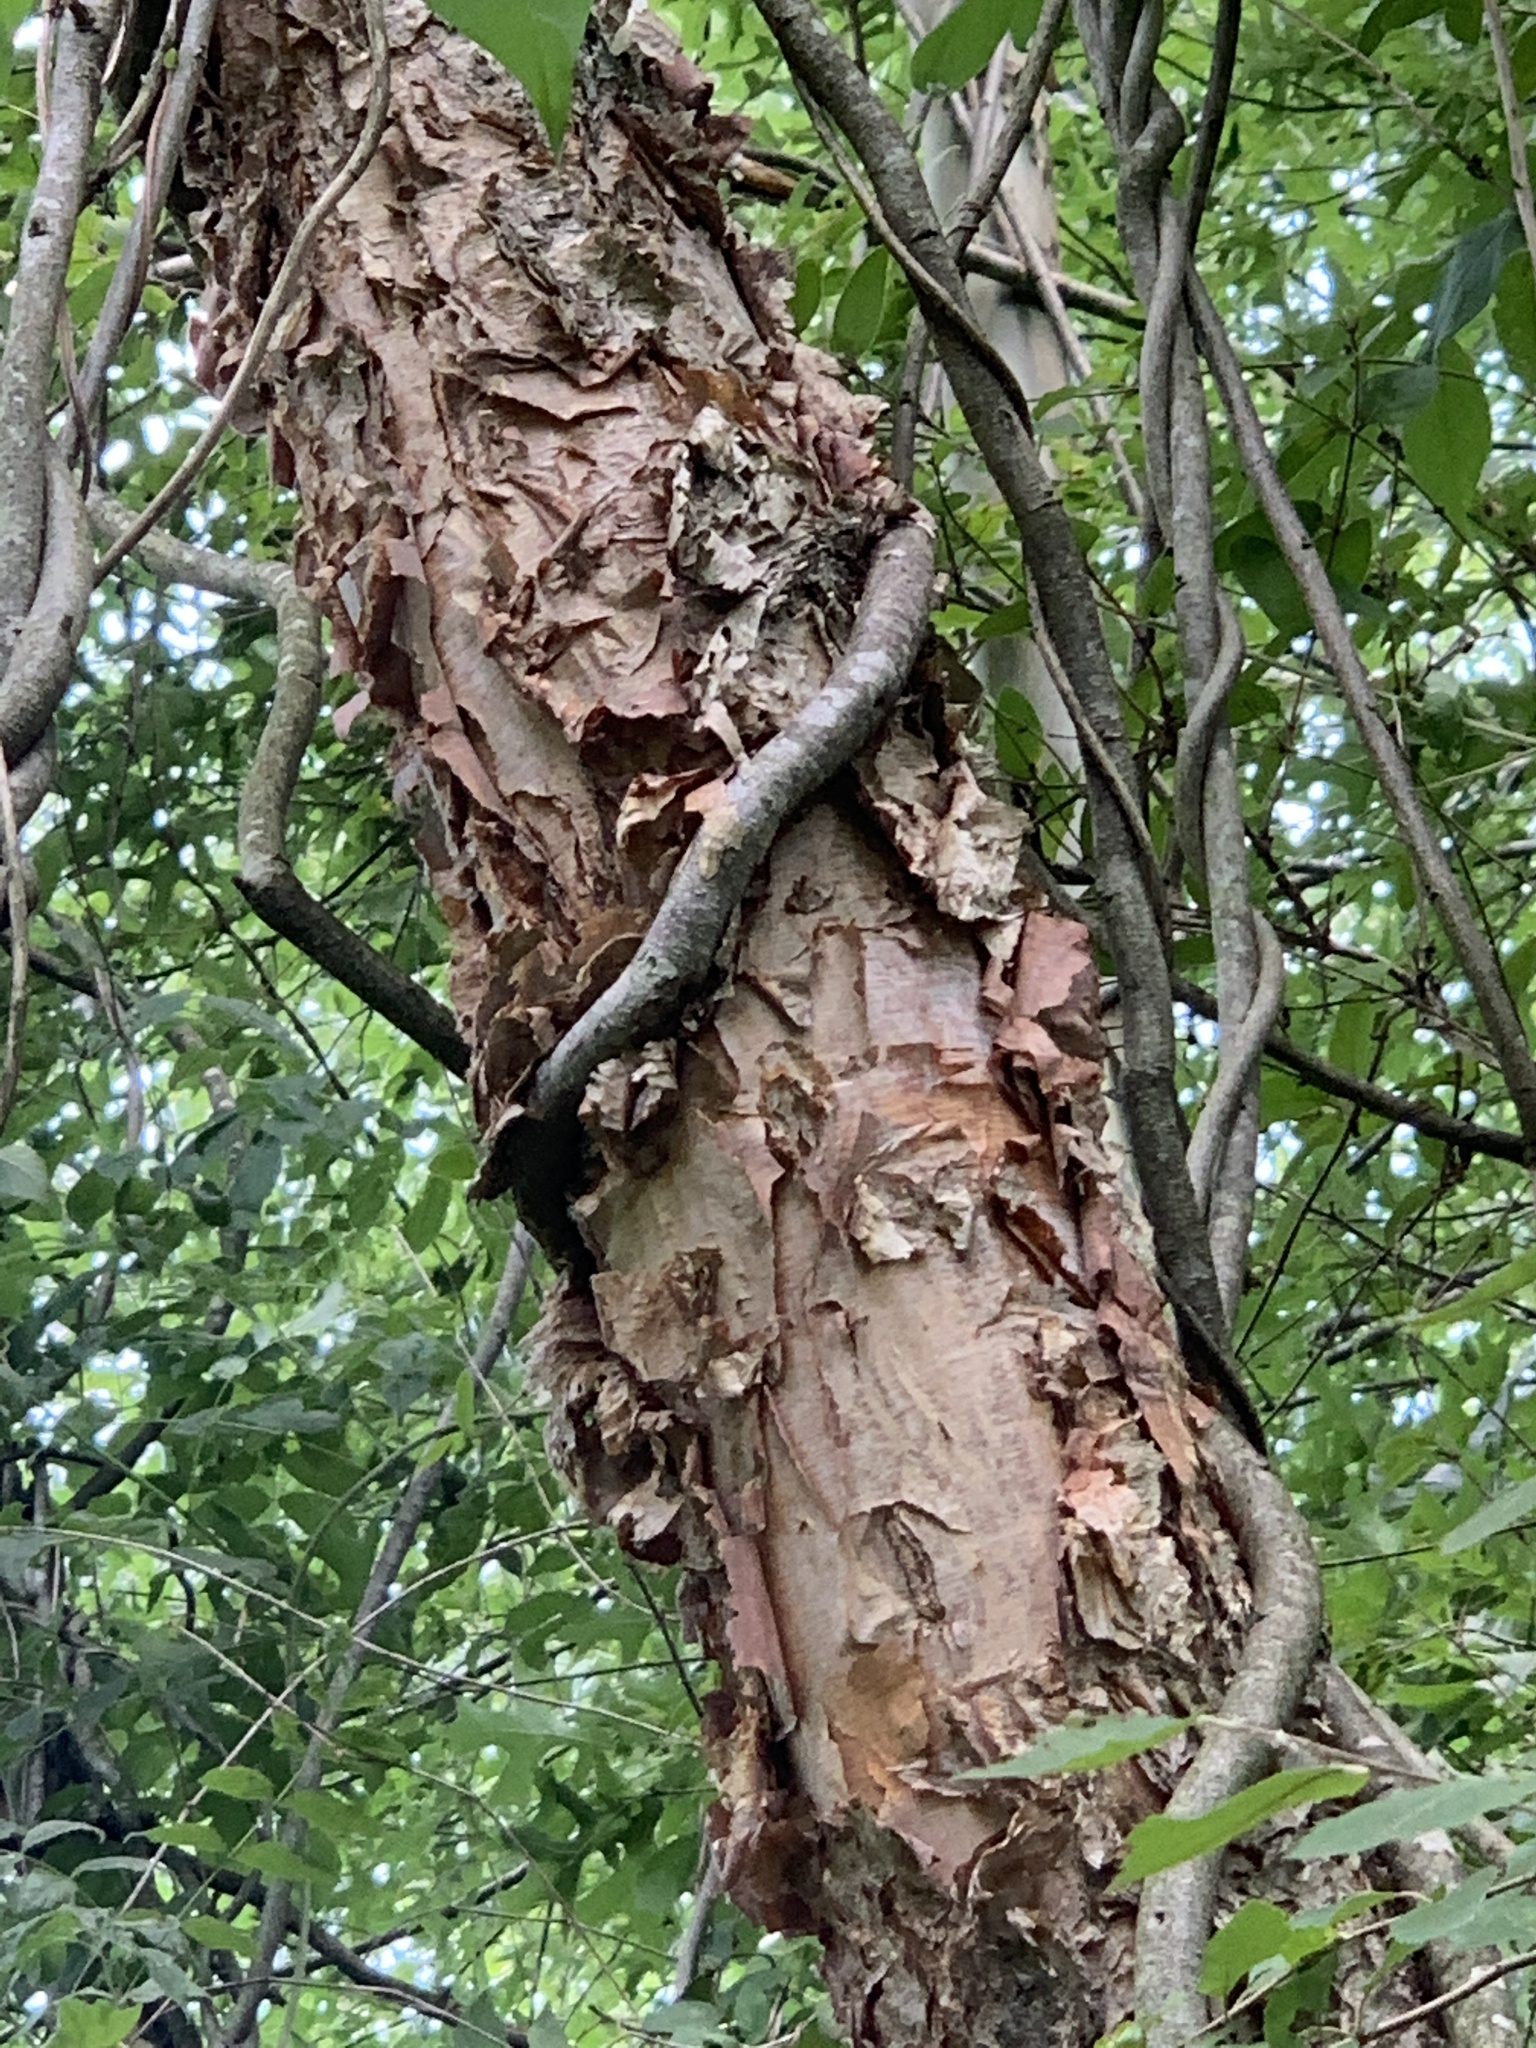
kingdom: Plantae
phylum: Tracheophyta
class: Magnoliopsida
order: Fagales
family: Betulaceae
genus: Betula
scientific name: Betula nigra
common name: Black birch
